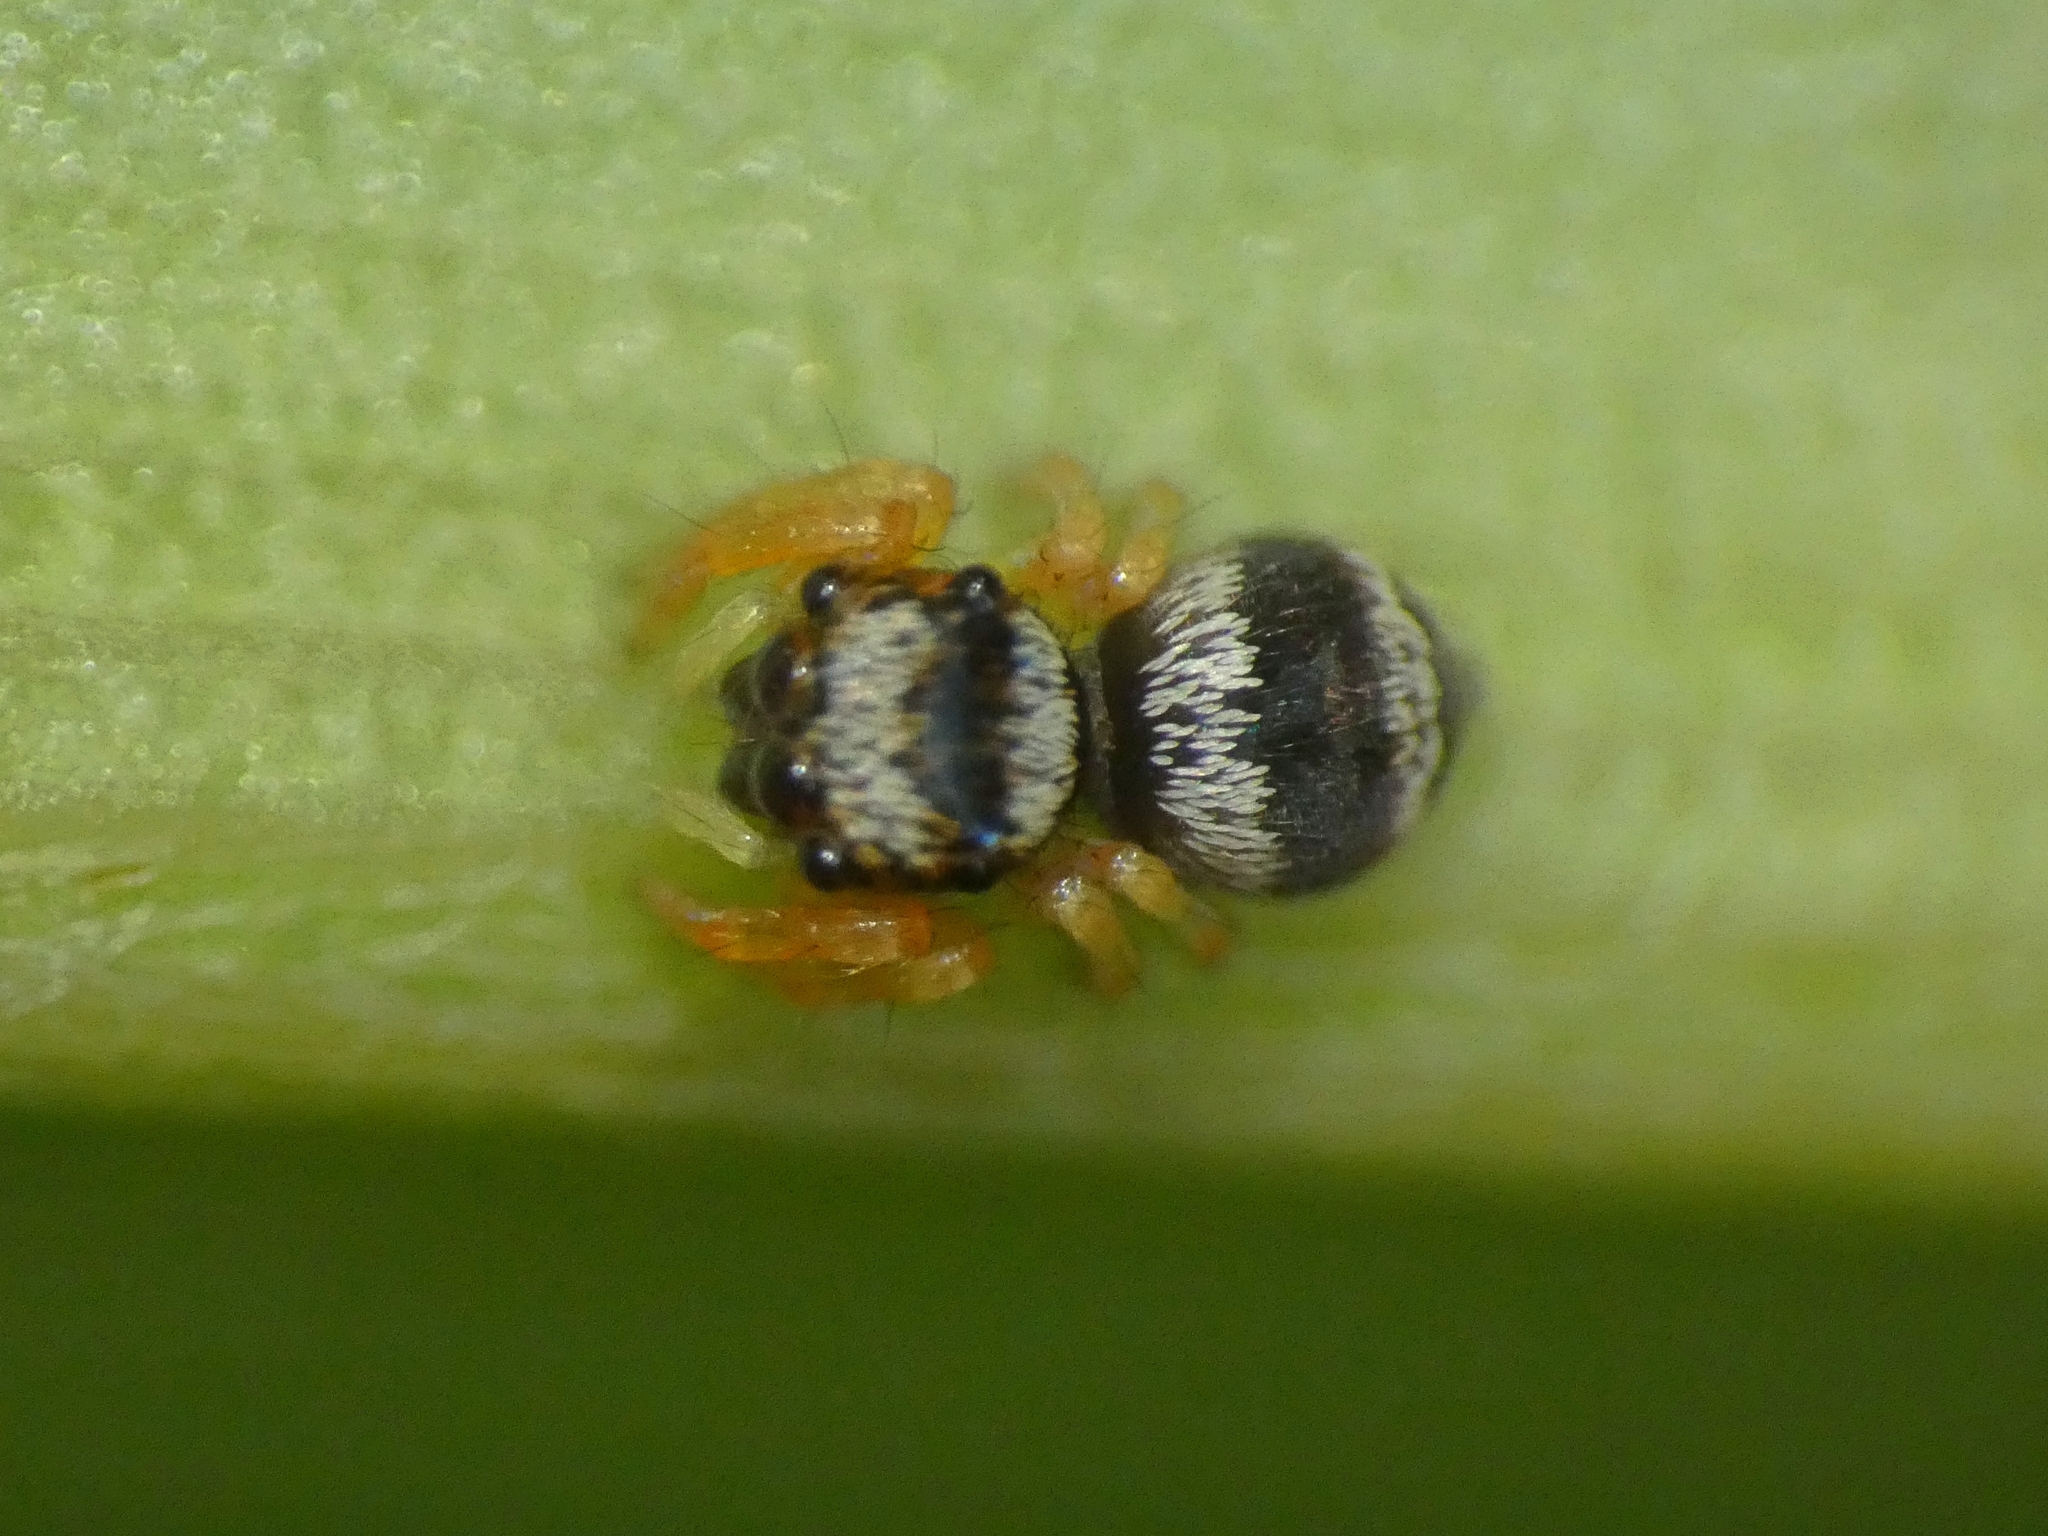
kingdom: Animalia
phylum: Arthropoda
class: Arachnida
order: Araneae
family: Salticidae
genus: Euryattus
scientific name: Euryattus bleekeri
